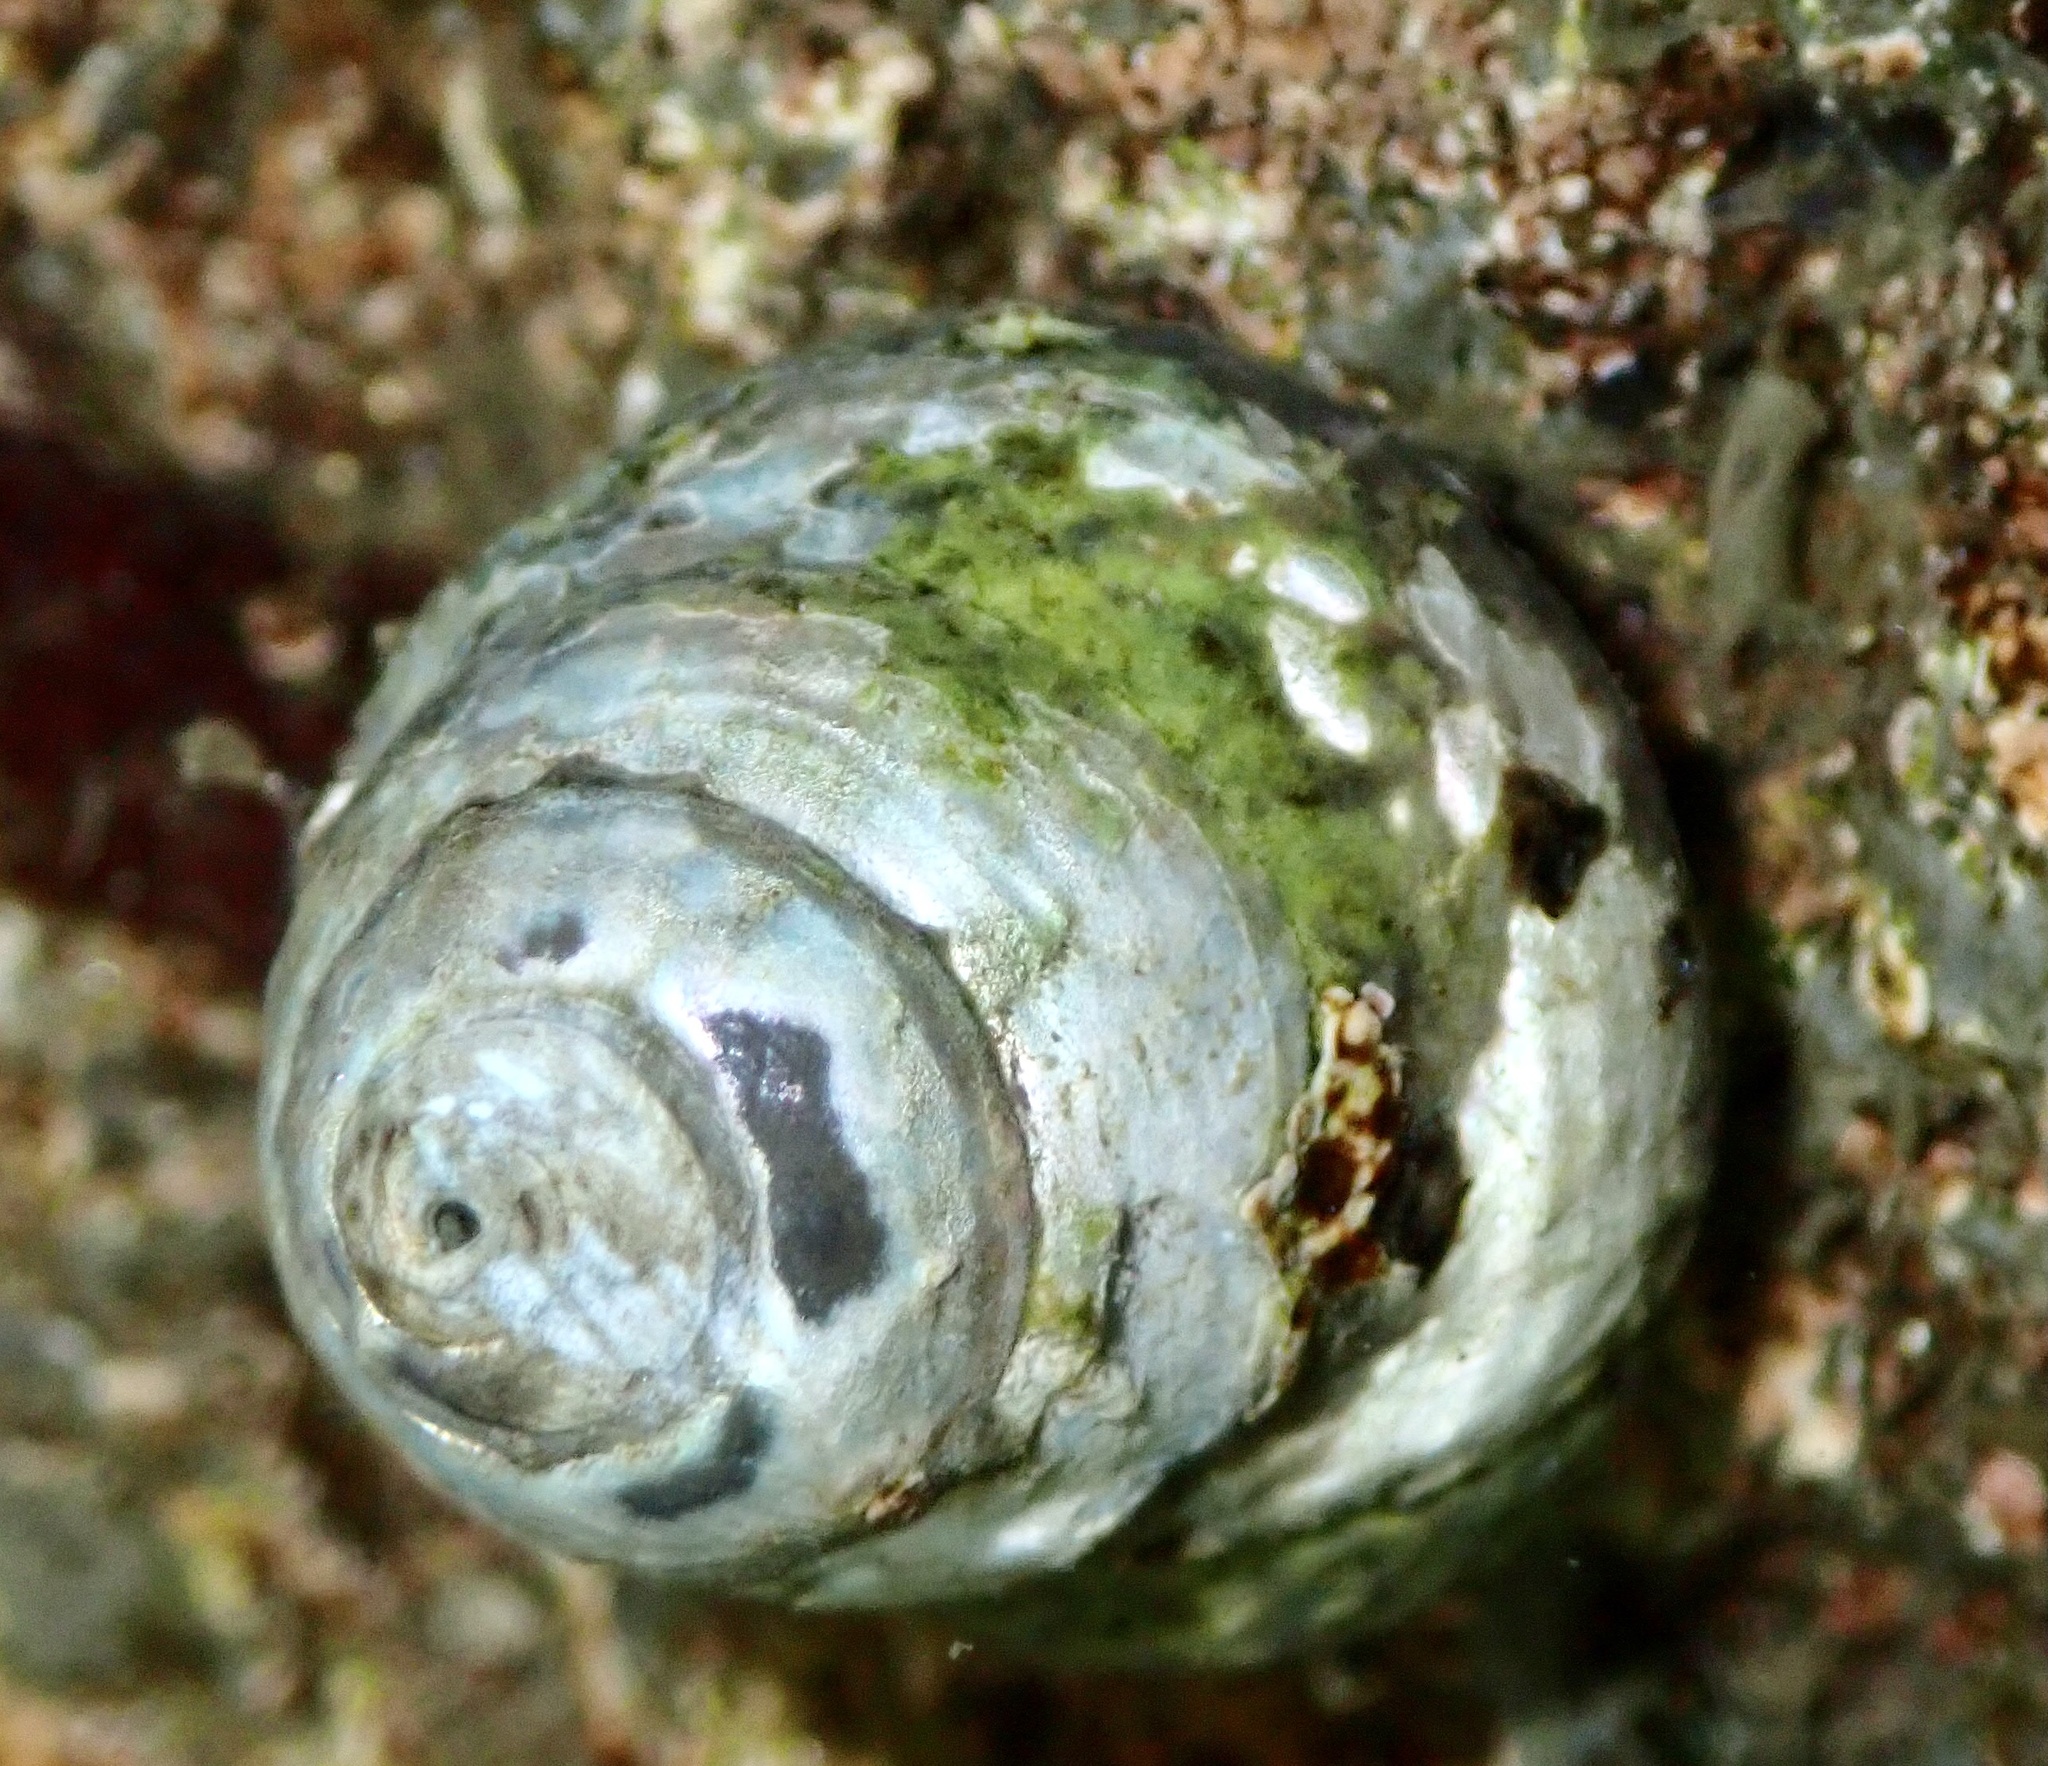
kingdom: Animalia
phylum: Mollusca
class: Gastropoda
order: Trochida
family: Trochidae
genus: Steromphala
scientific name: Steromphala cineraria
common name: Grey top shell
